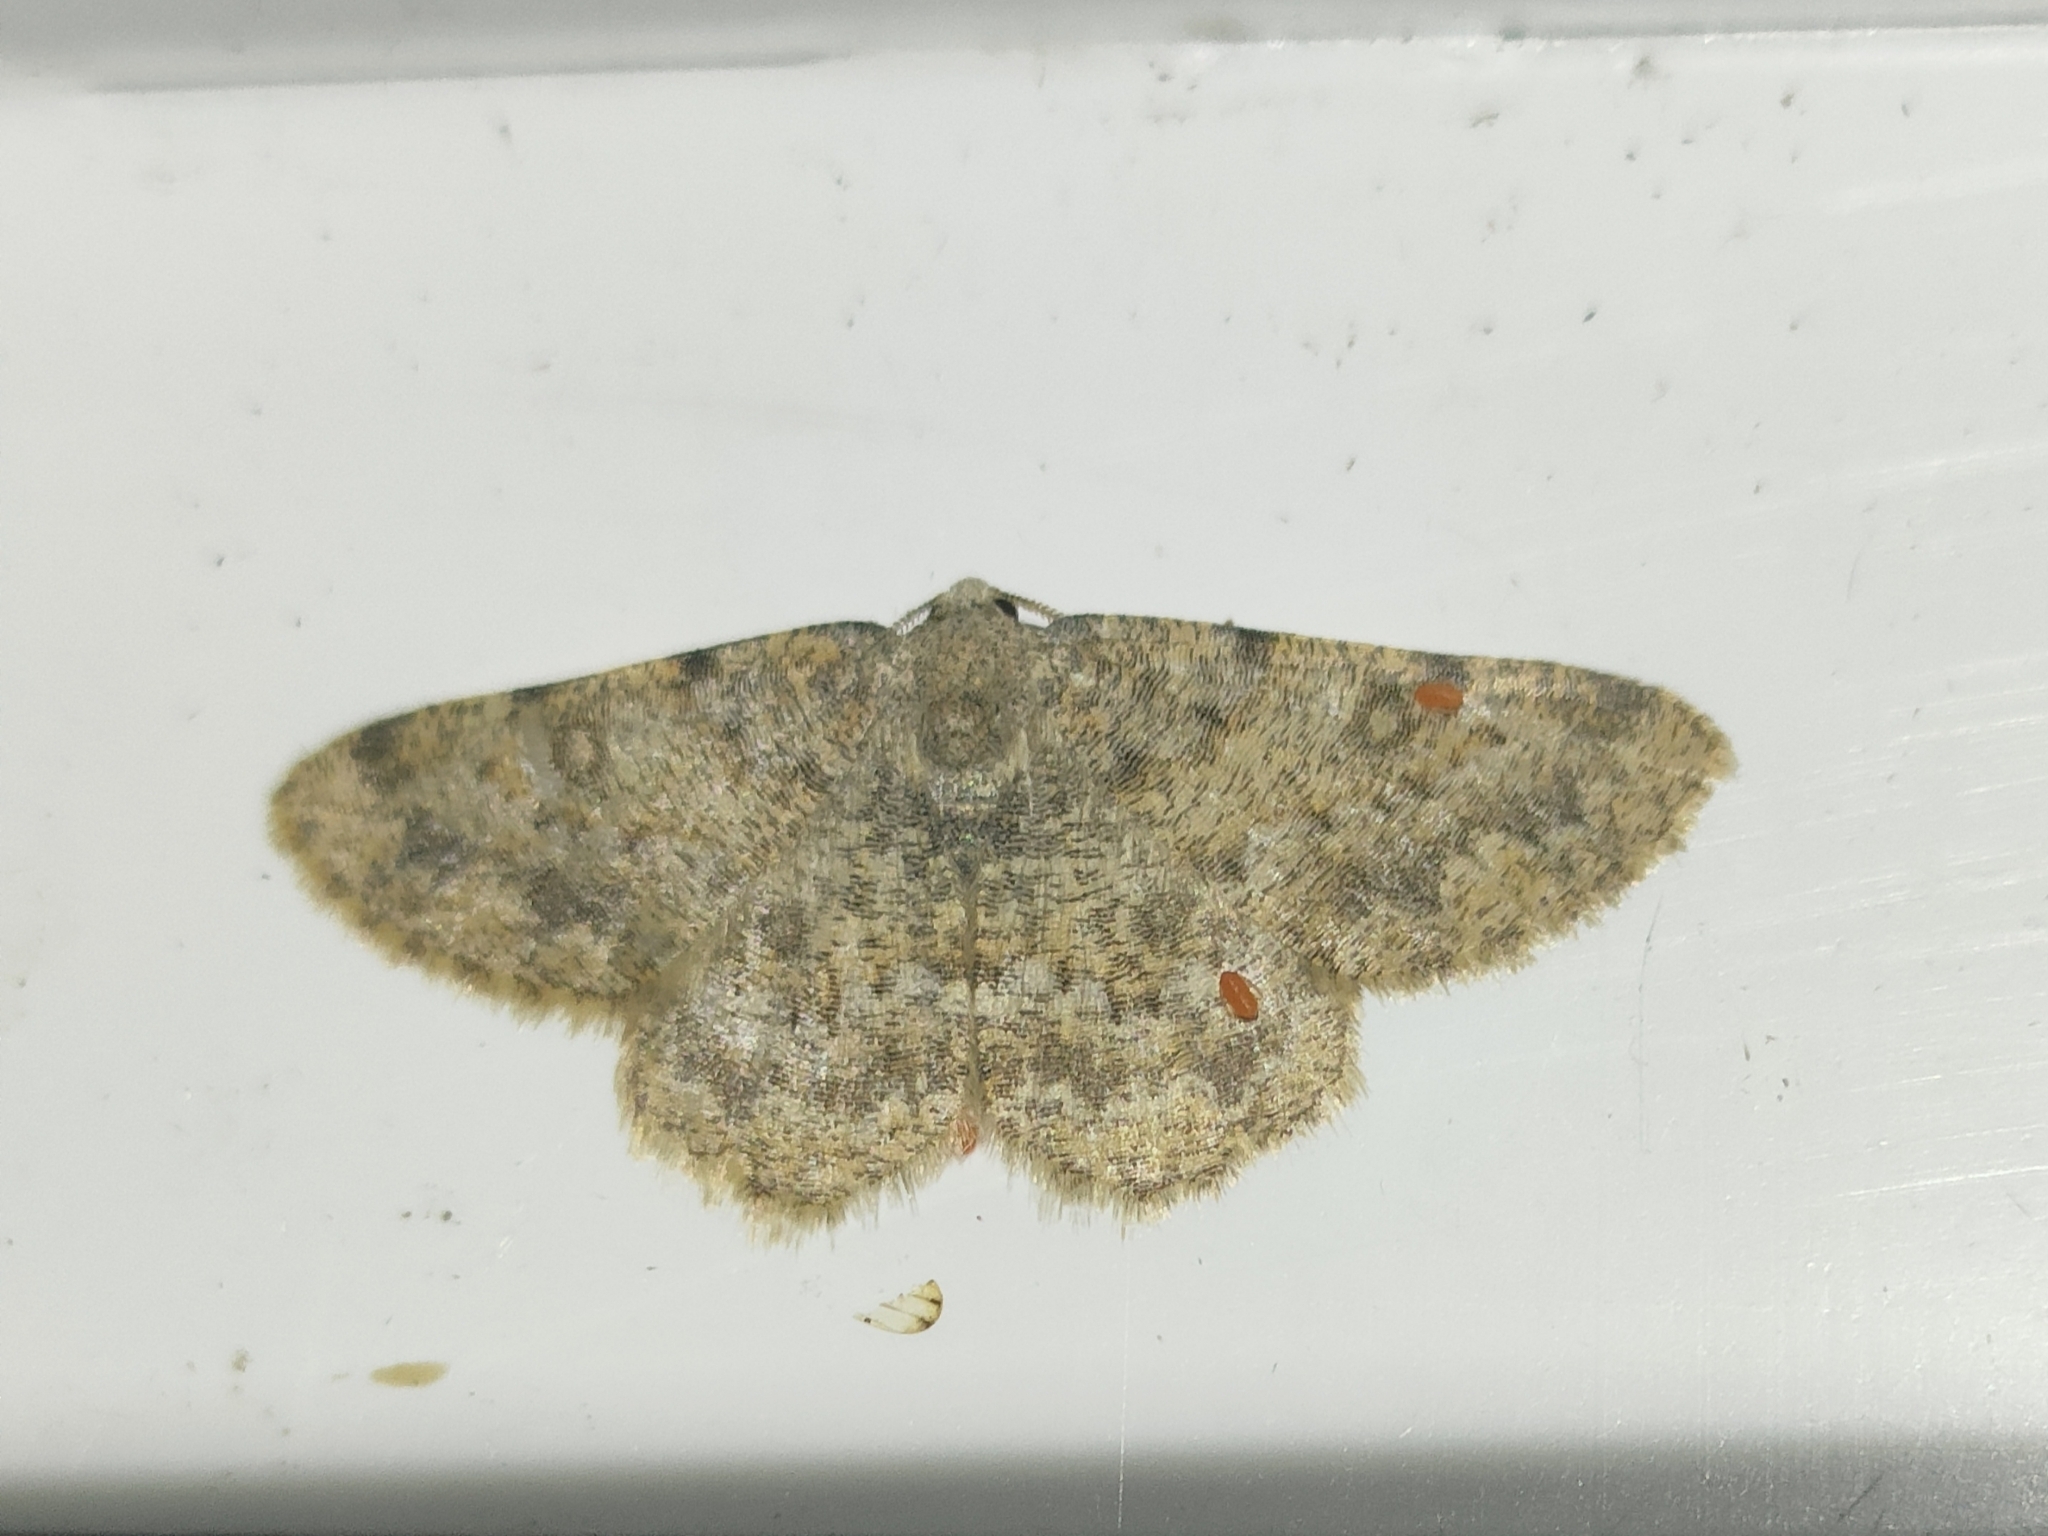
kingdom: Animalia
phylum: Arthropoda
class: Insecta
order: Lepidoptera
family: Geometridae
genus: Charissa
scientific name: Charissa mucidaria
